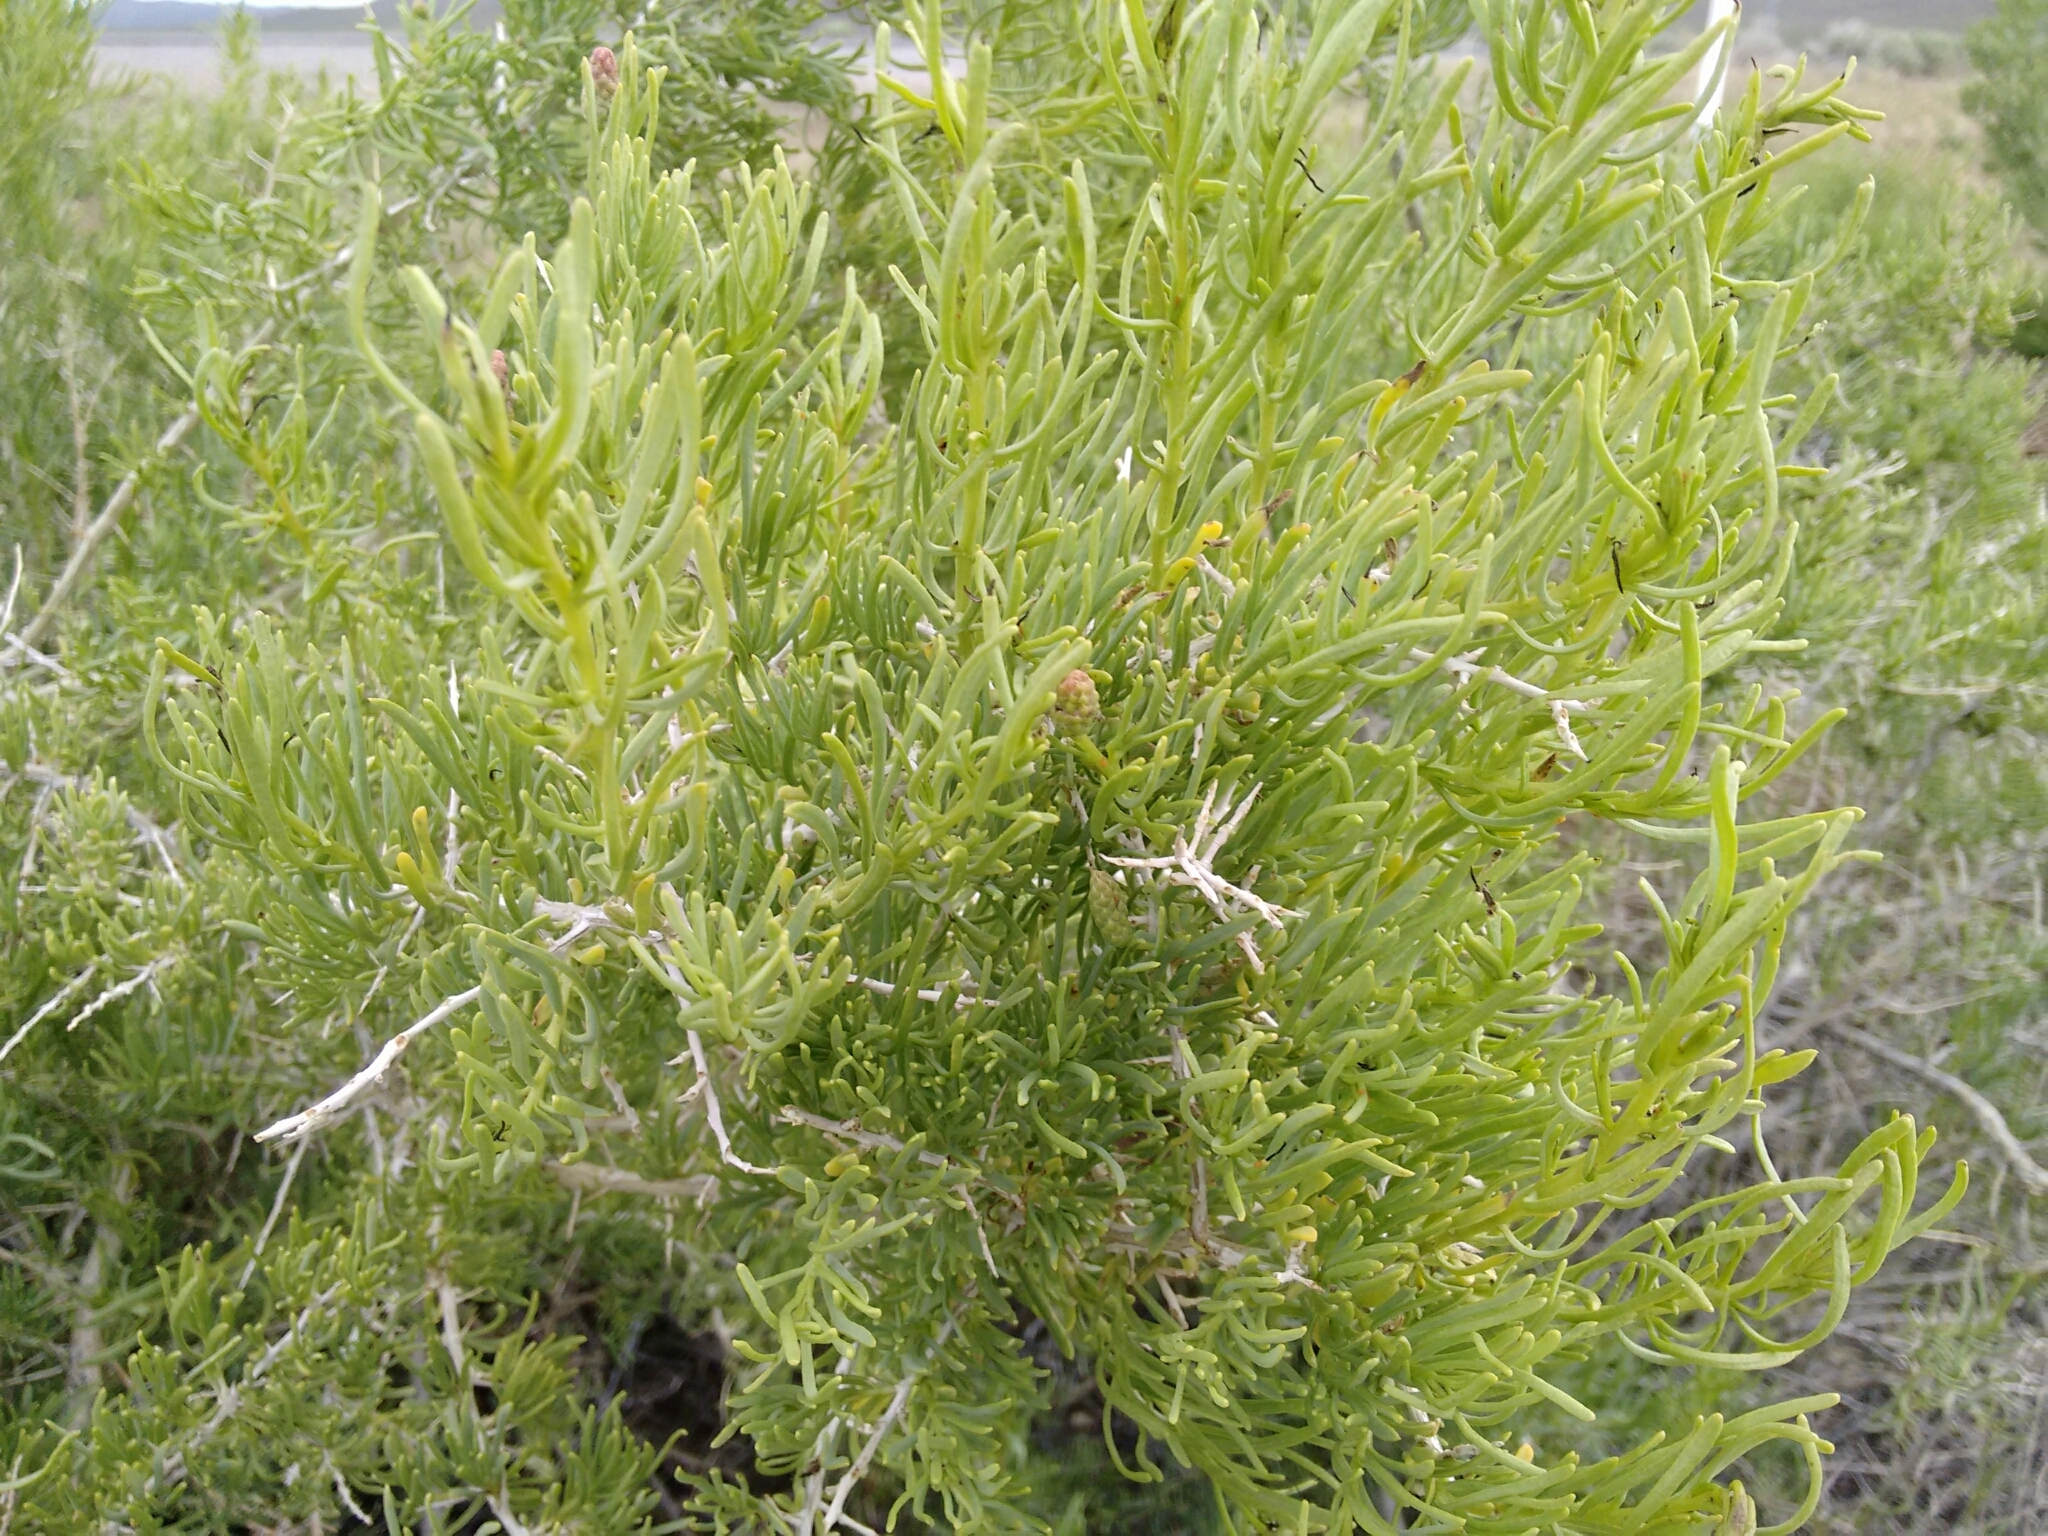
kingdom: Plantae
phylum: Tracheophyta
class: Magnoliopsida
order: Caryophyllales
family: Sarcobataceae
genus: Sarcobatus
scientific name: Sarcobatus vermiculatus
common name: Greasewood
